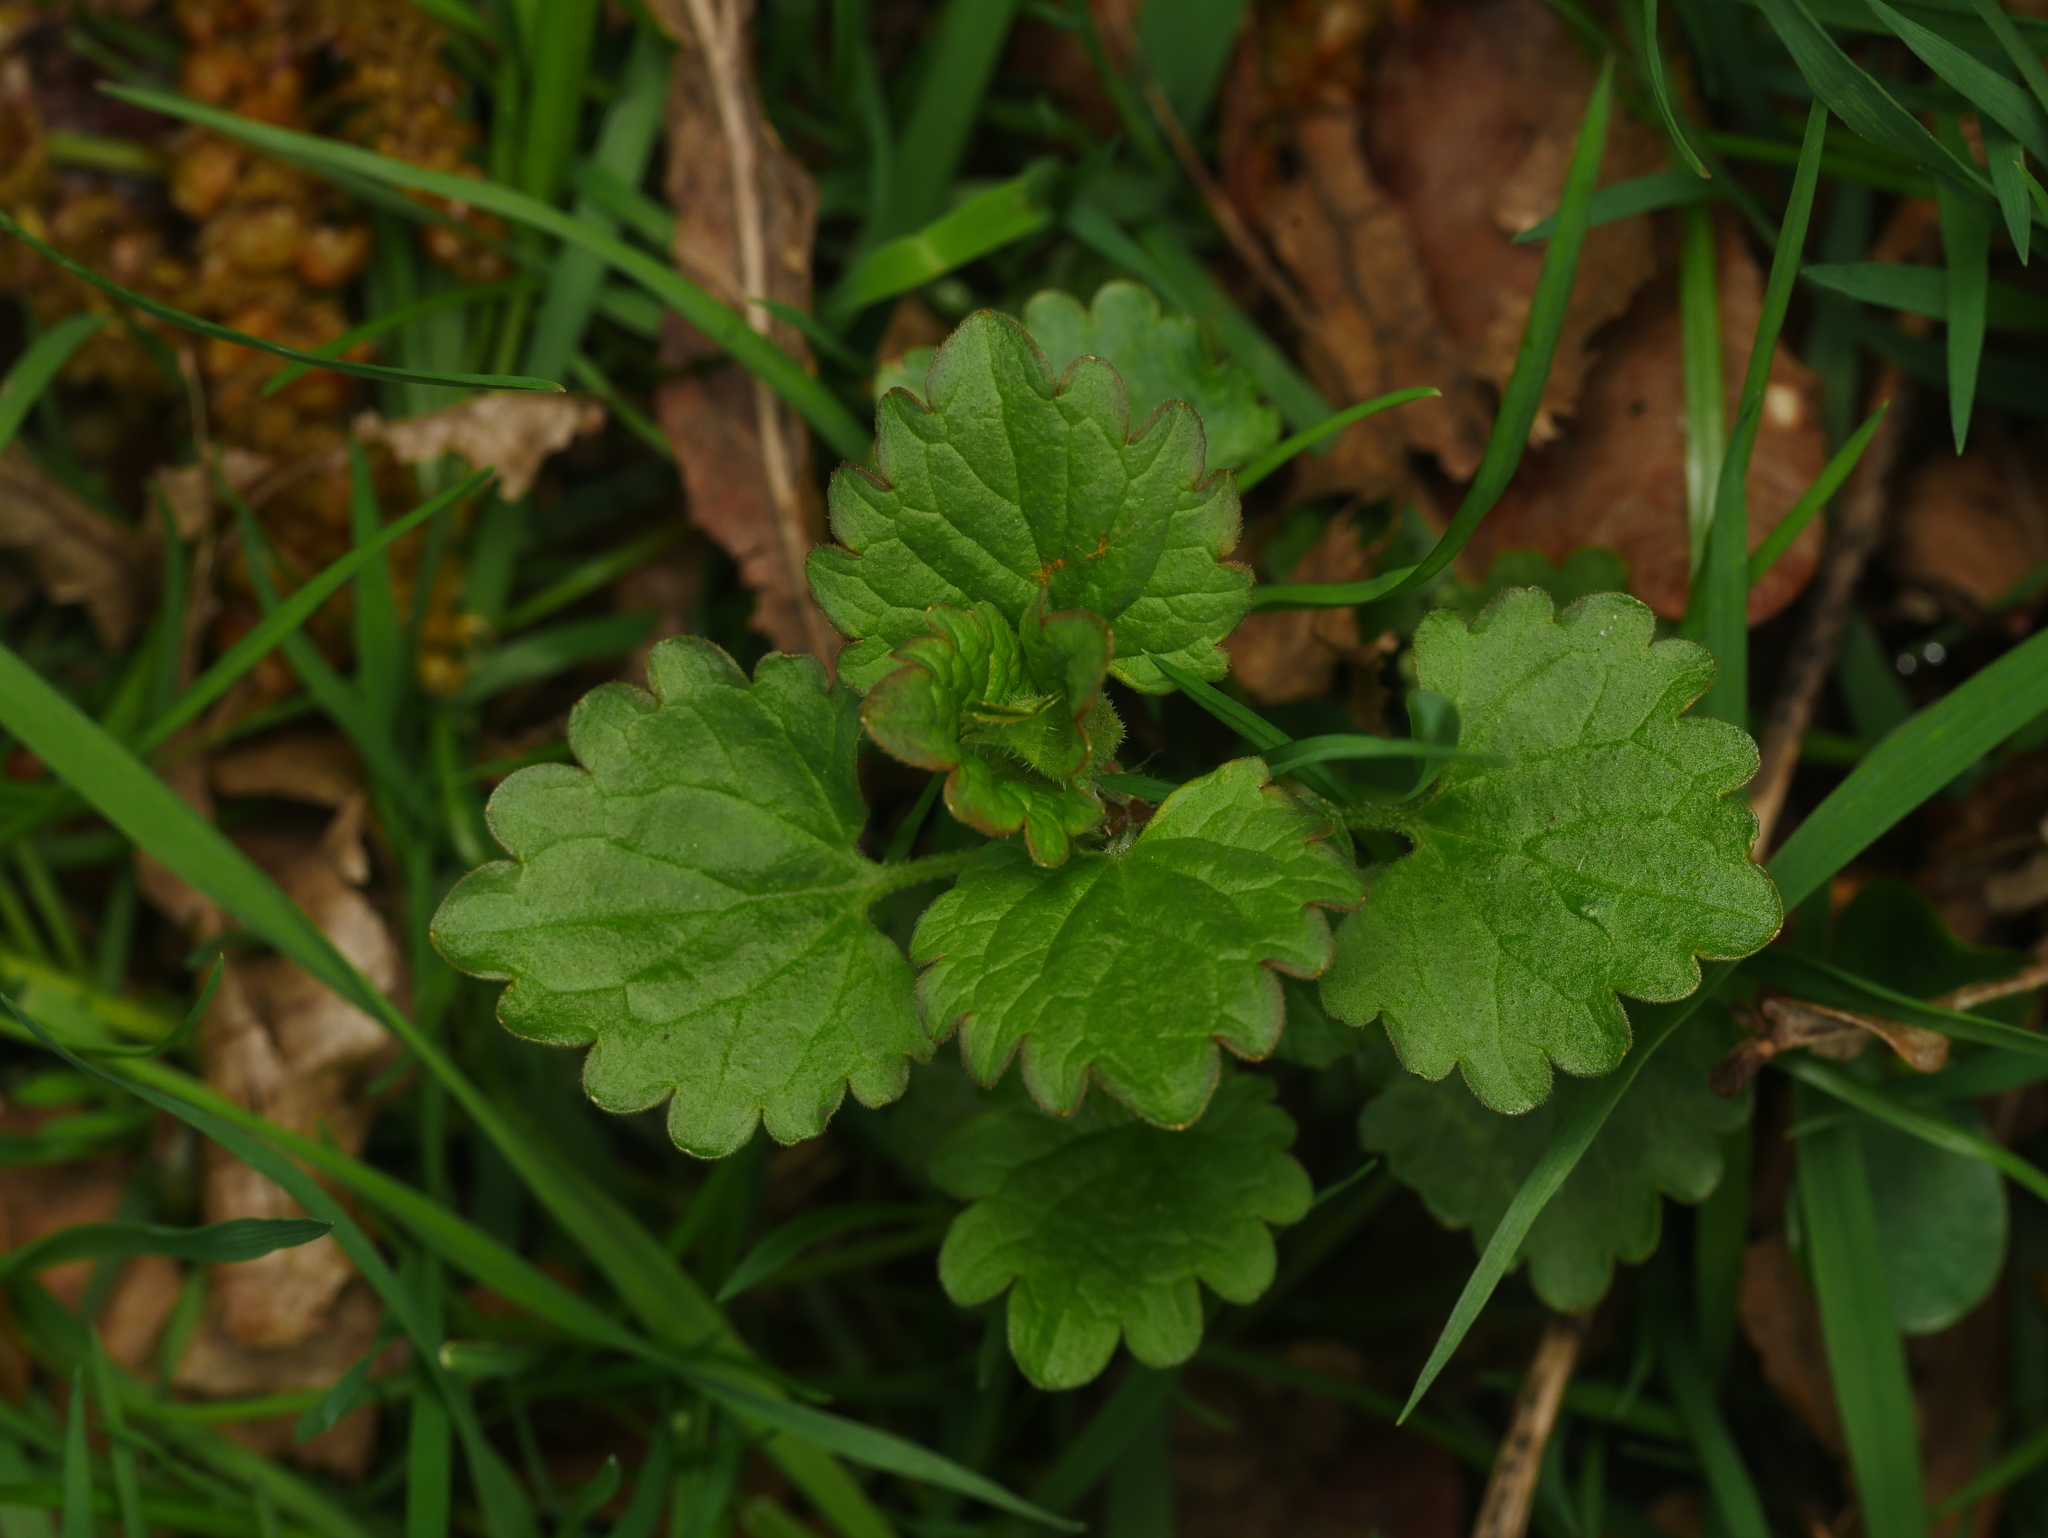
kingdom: Plantae
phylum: Tracheophyta
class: Magnoliopsida
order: Lamiales
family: Lamiaceae
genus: Glechoma
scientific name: Glechoma hederacea
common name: Ground ivy
